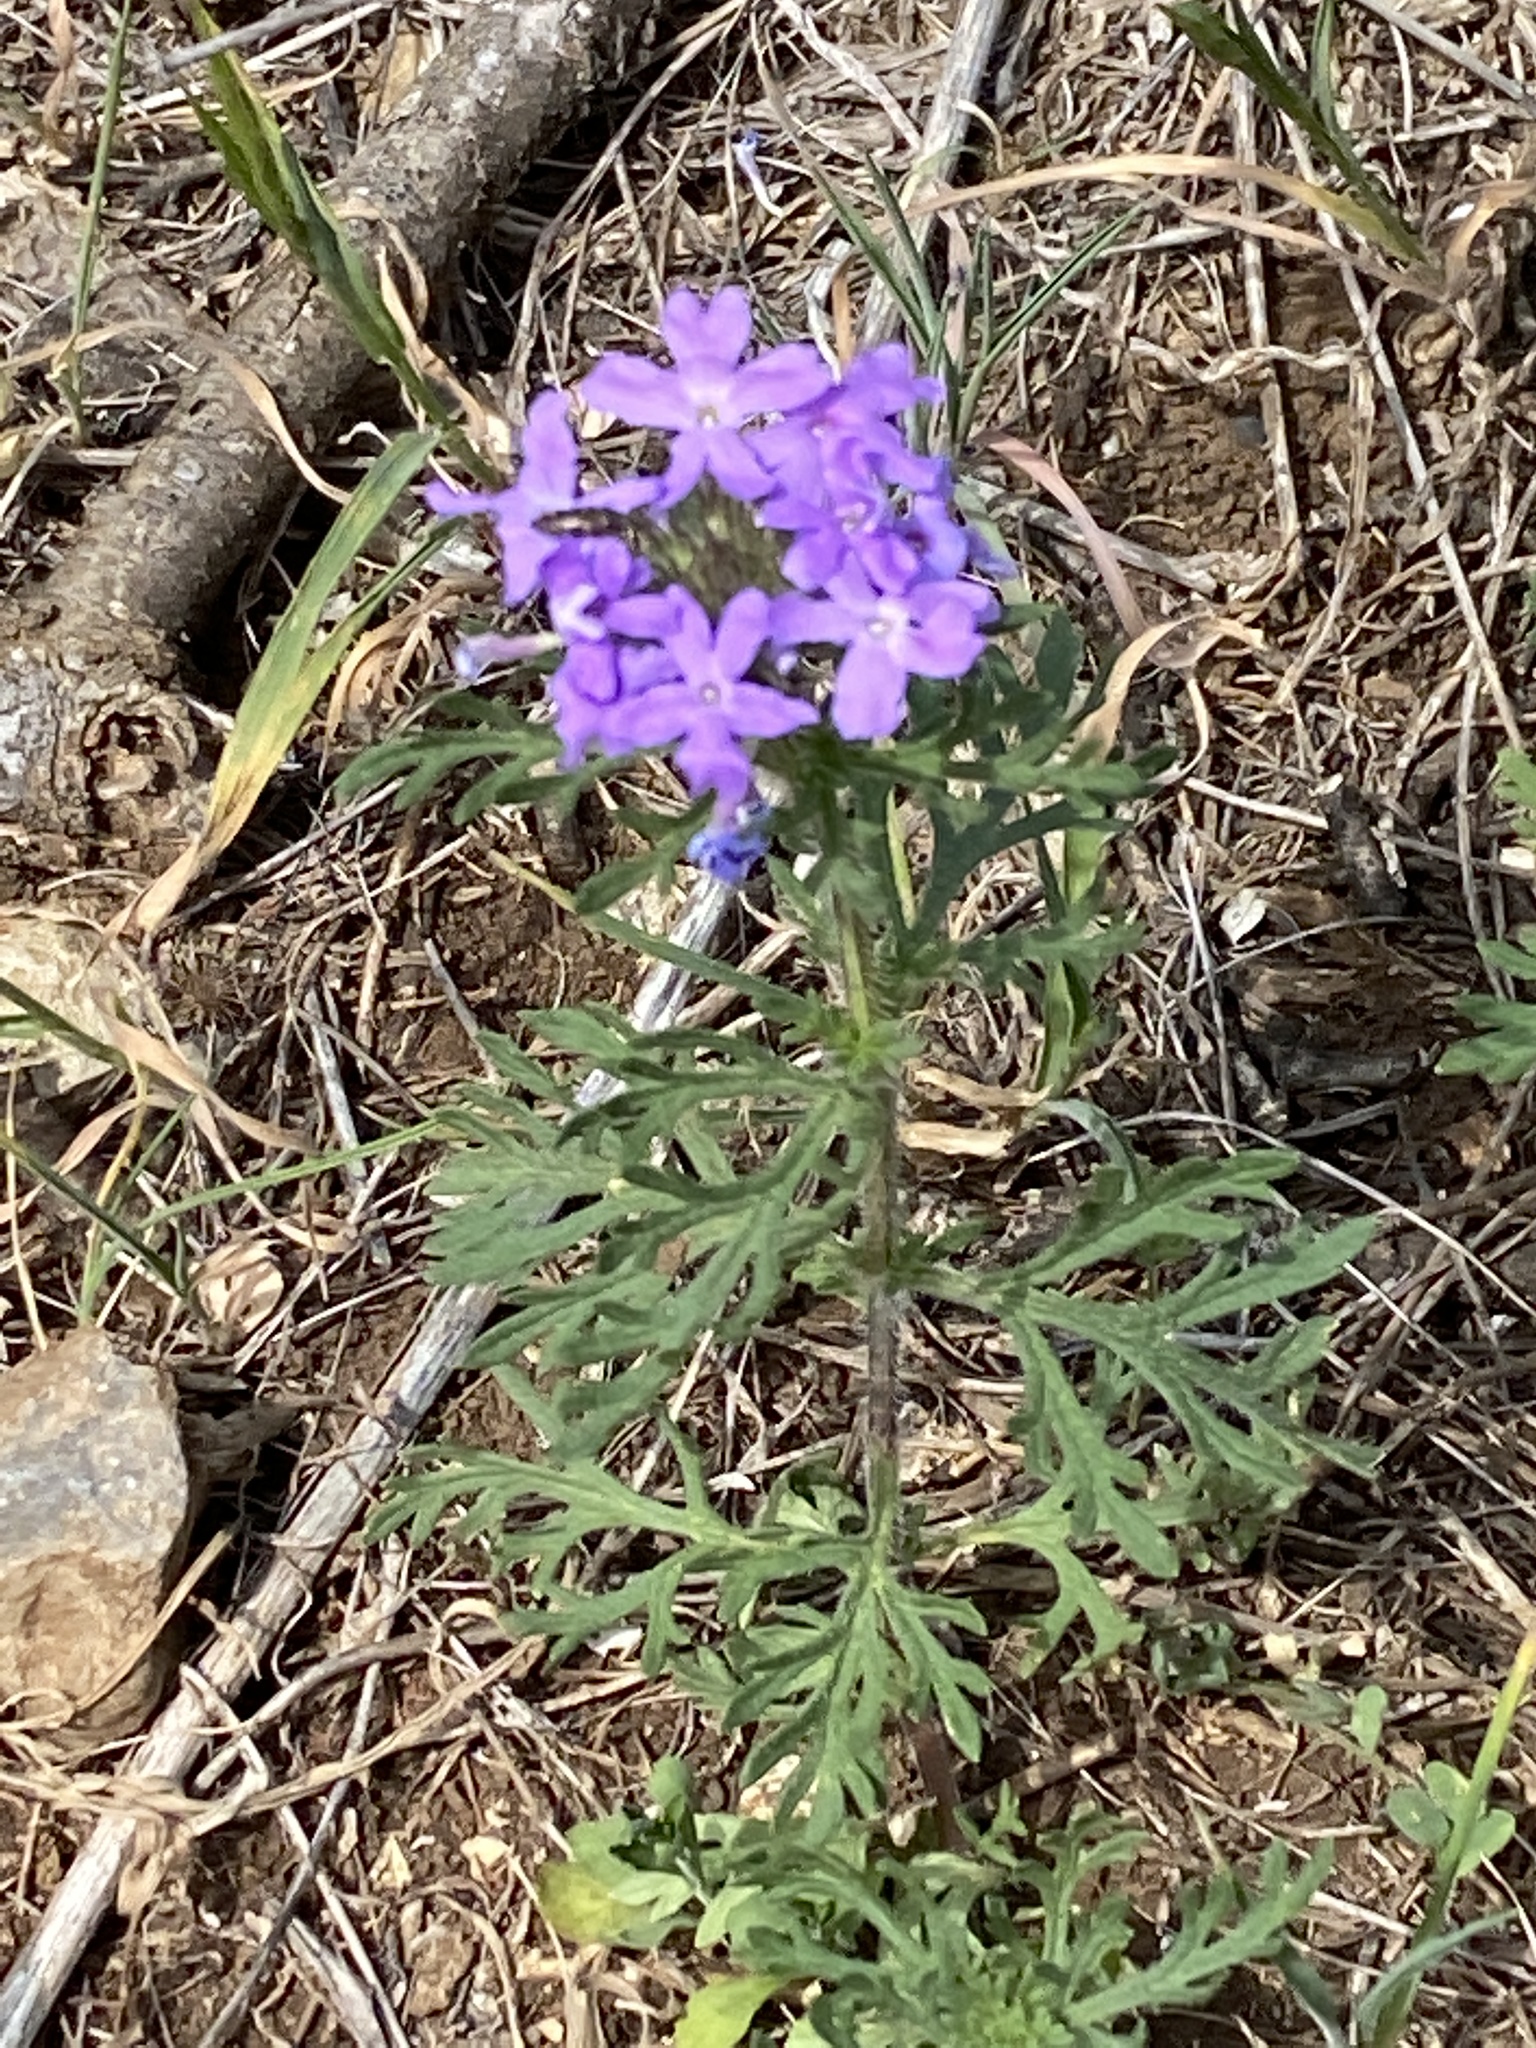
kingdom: Plantae
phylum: Tracheophyta
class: Magnoliopsida
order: Lamiales
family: Verbenaceae
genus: Verbena
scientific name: Verbena bipinnatifida
